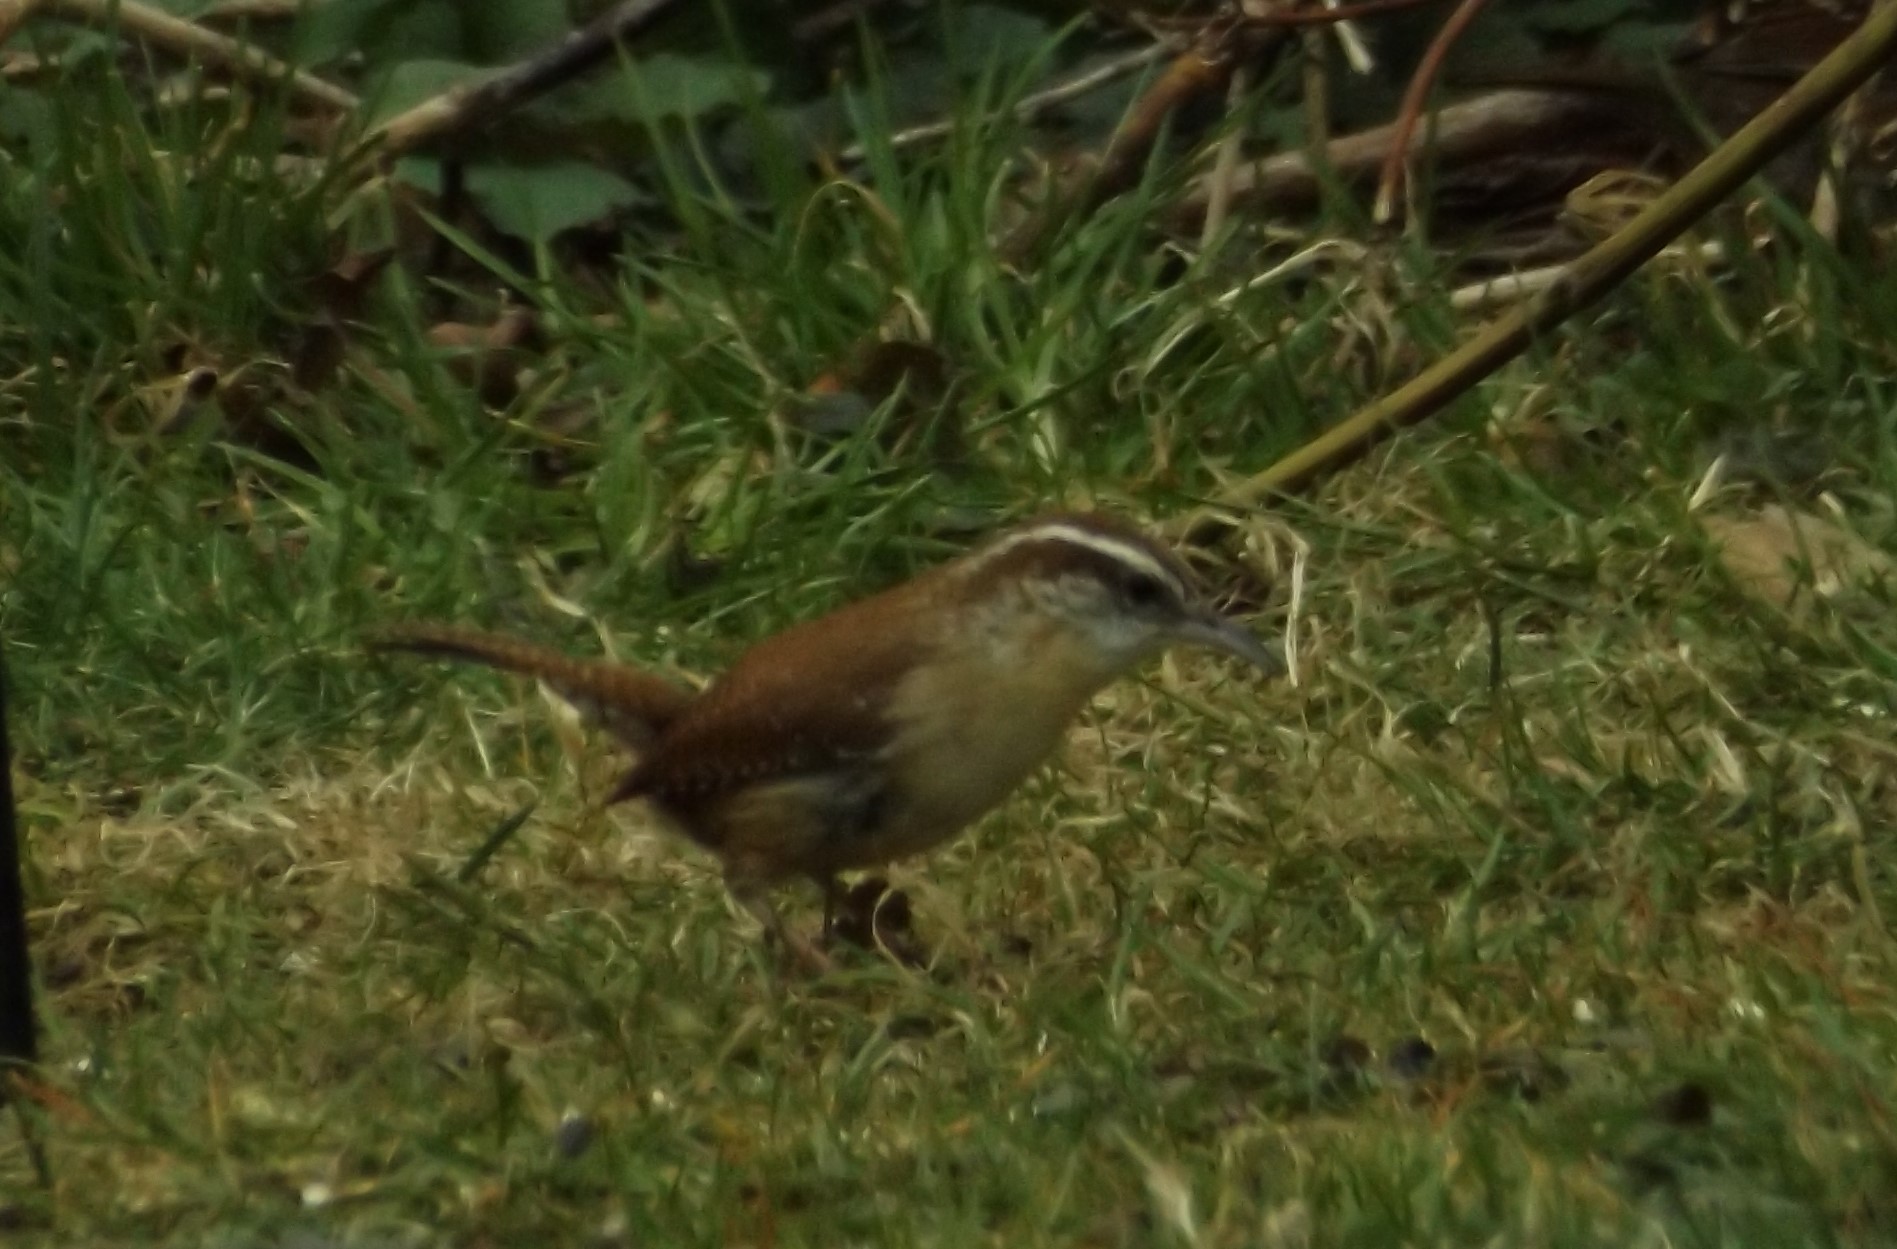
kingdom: Animalia
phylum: Chordata
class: Aves
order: Passeriformes
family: Troglodytidae
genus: Thryothorus
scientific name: Thryothorus ludovicianus
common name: Carolina wren
